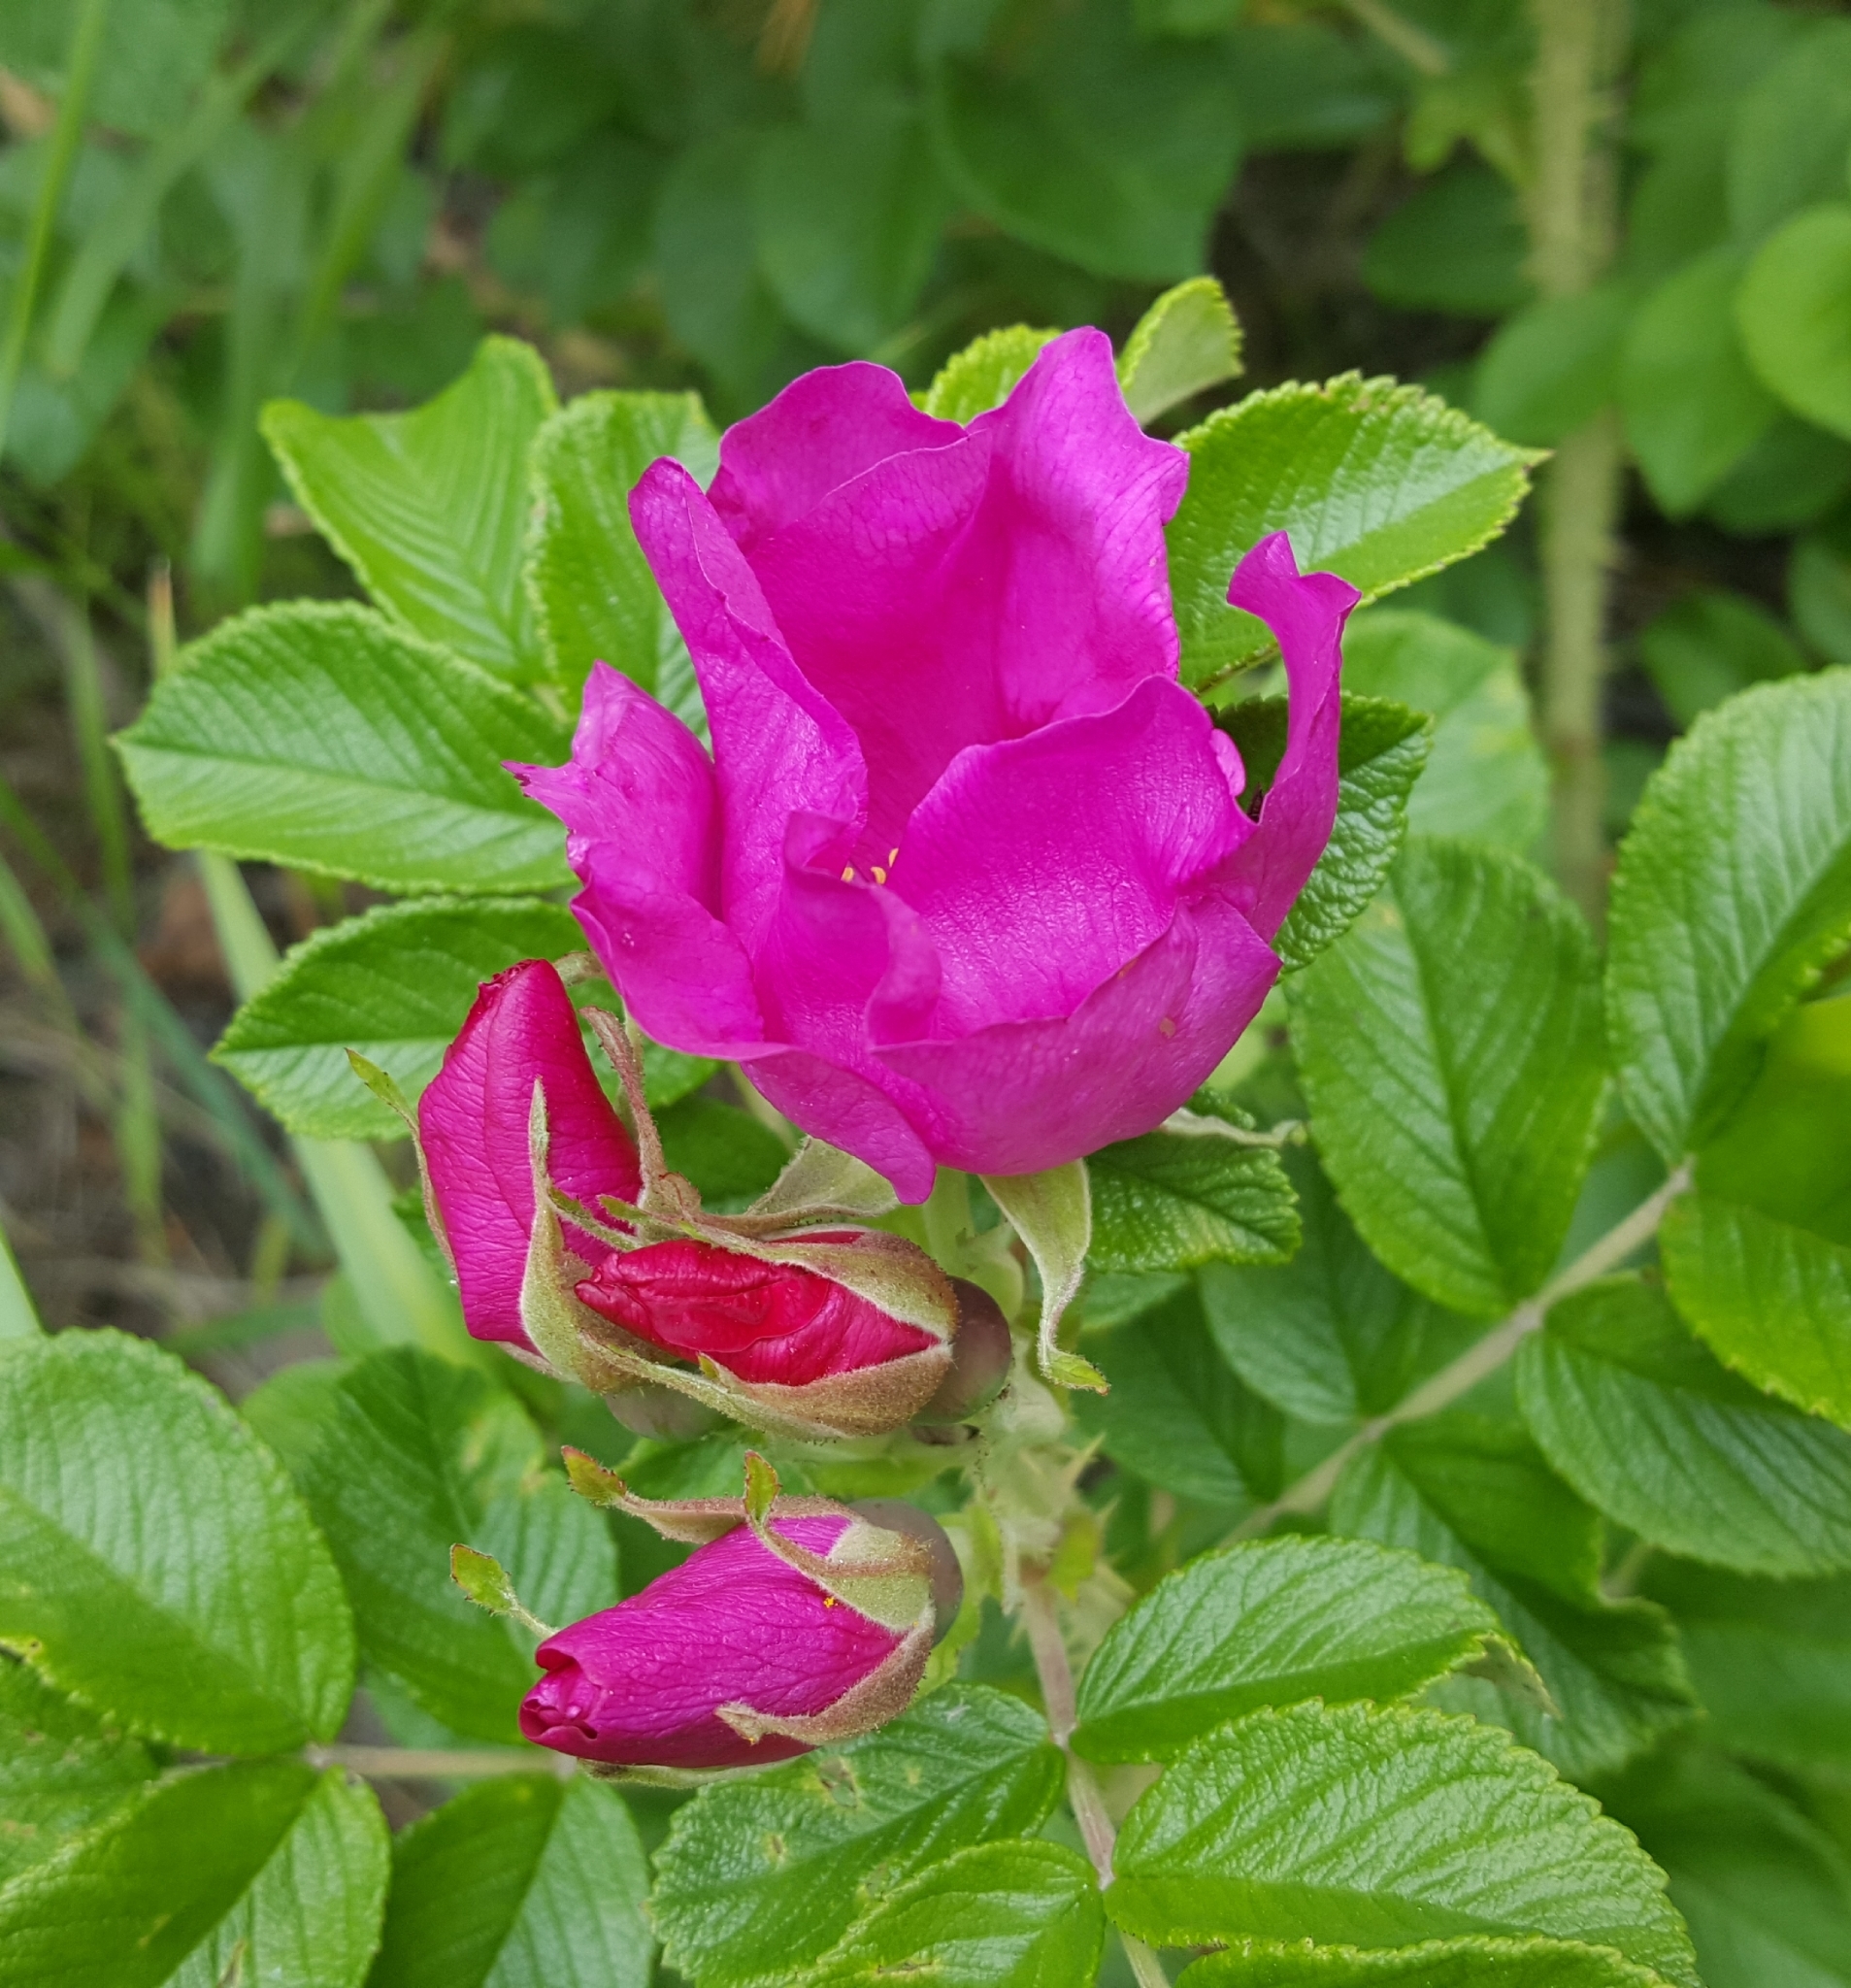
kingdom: Plantae
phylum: Tracheophyta
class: Magnoliopsida
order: Rosales
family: Rosaceae
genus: Rosa
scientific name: Rosa rugosa
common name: Japanese rose
